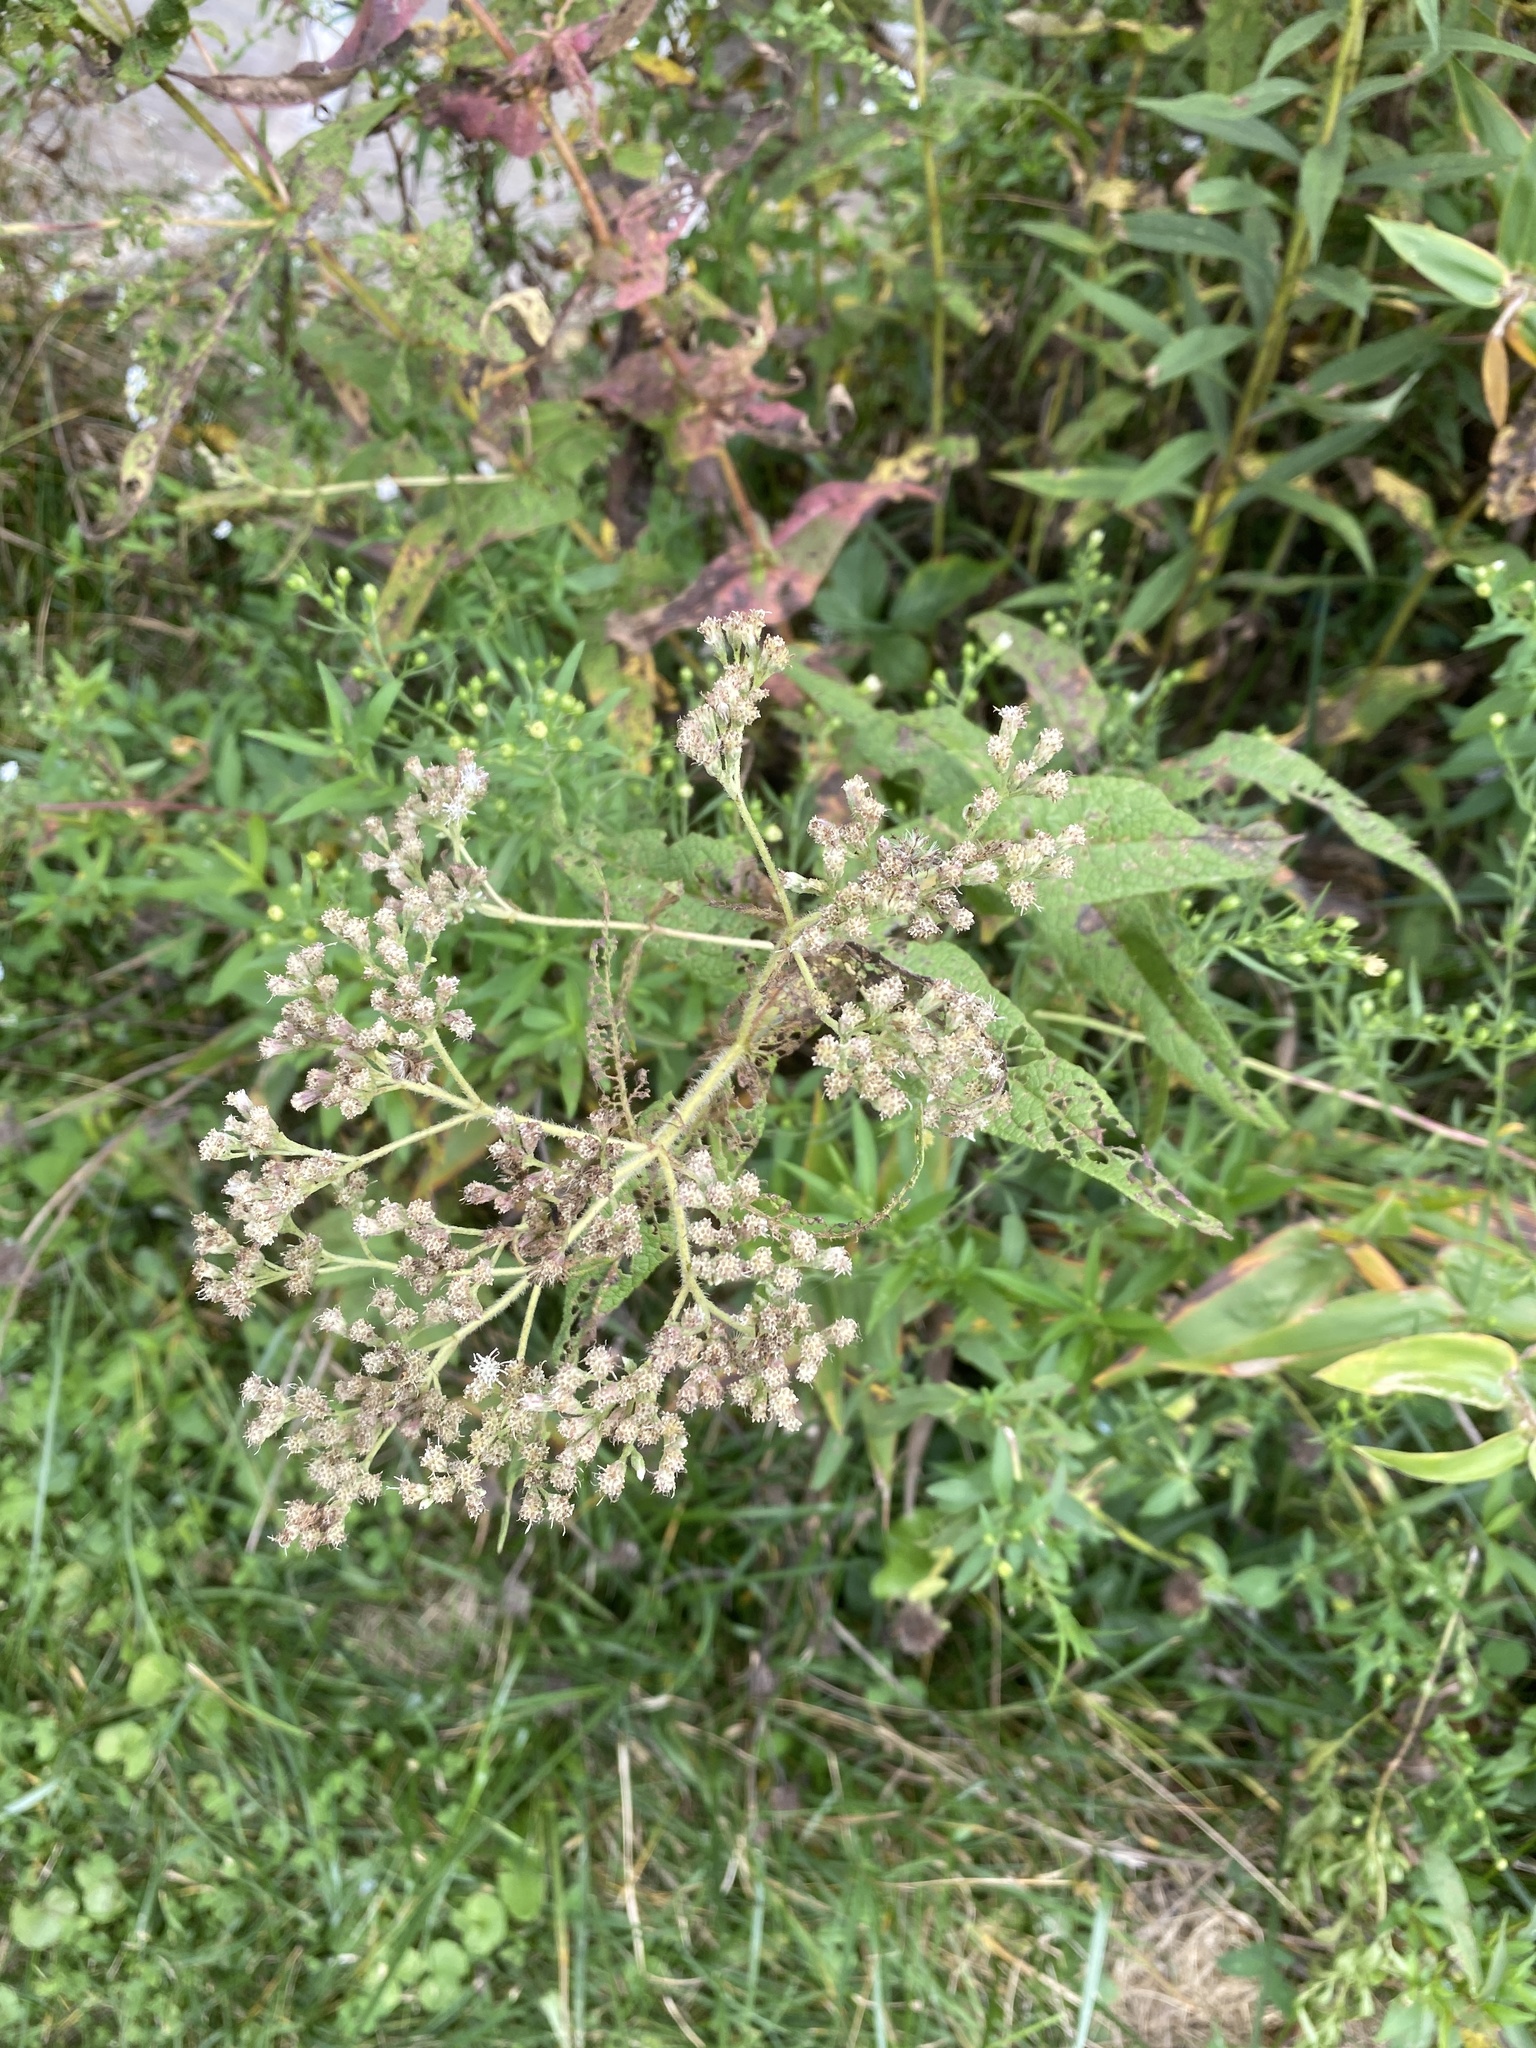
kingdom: Plantae
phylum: Tracheophyta
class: Magnoliopsida
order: Asterales
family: Asteraceae
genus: Eupatorium
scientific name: Eupatorium perfoliatum
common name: Boneset
